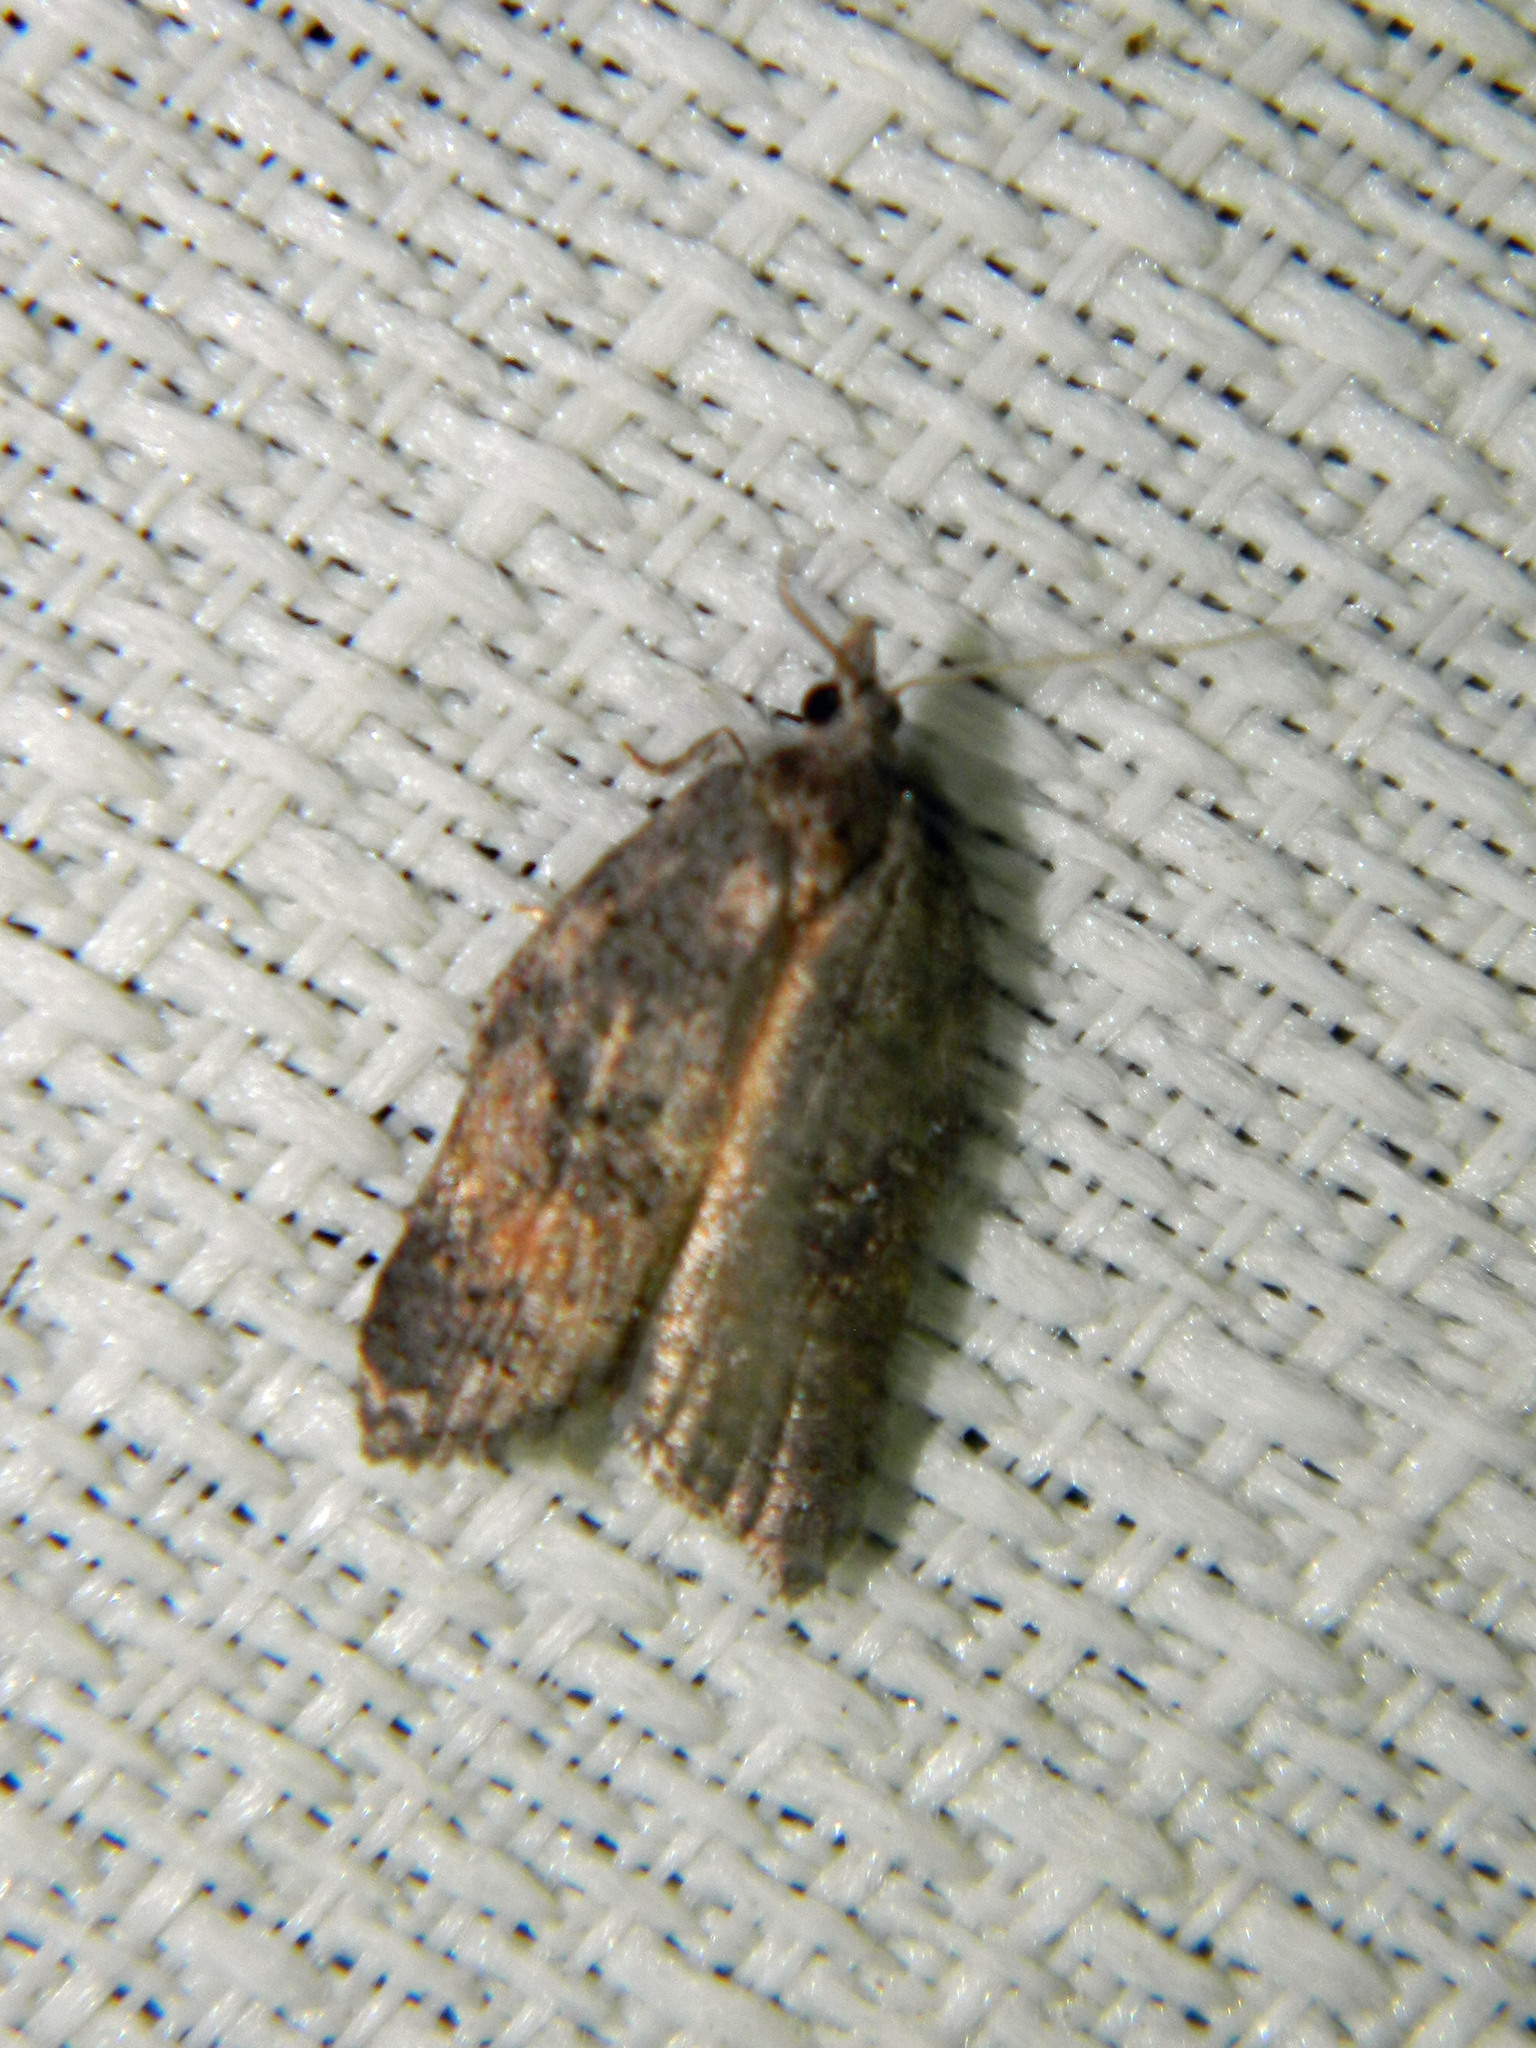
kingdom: Animalia
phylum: Arthropoda
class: Insecta
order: Lepidoptera
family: Tortricidae
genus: Acleris
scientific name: Acleris effractana
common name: Hook-winged tortrix moth
